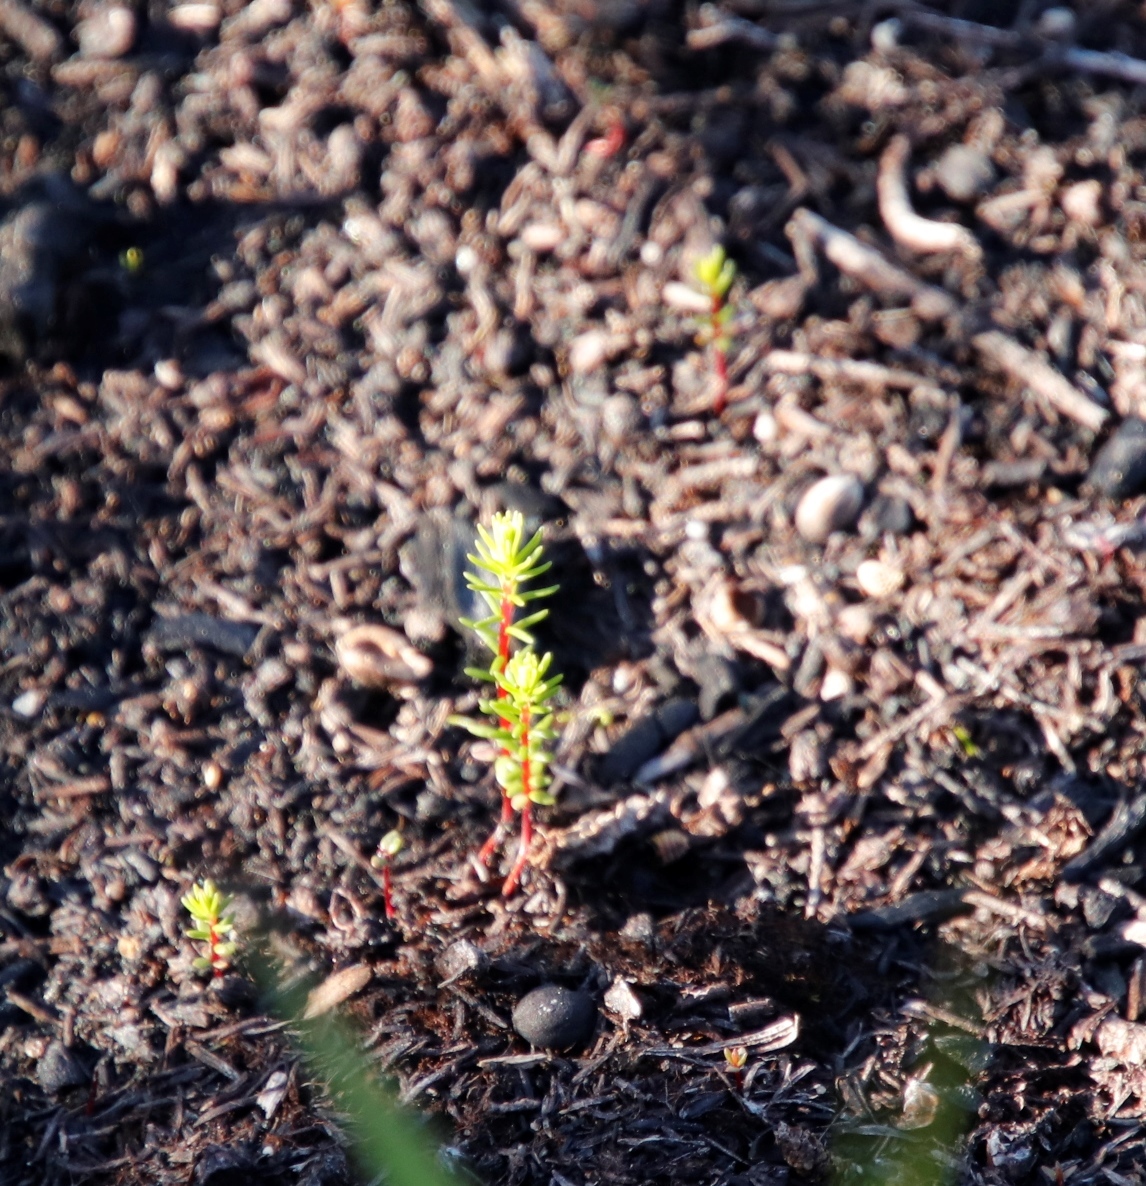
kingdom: Plantae
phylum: Tracheophyta
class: Magnoliopsida
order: Ericales
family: Ericaceae
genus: Erica
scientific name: Erica verticillata
